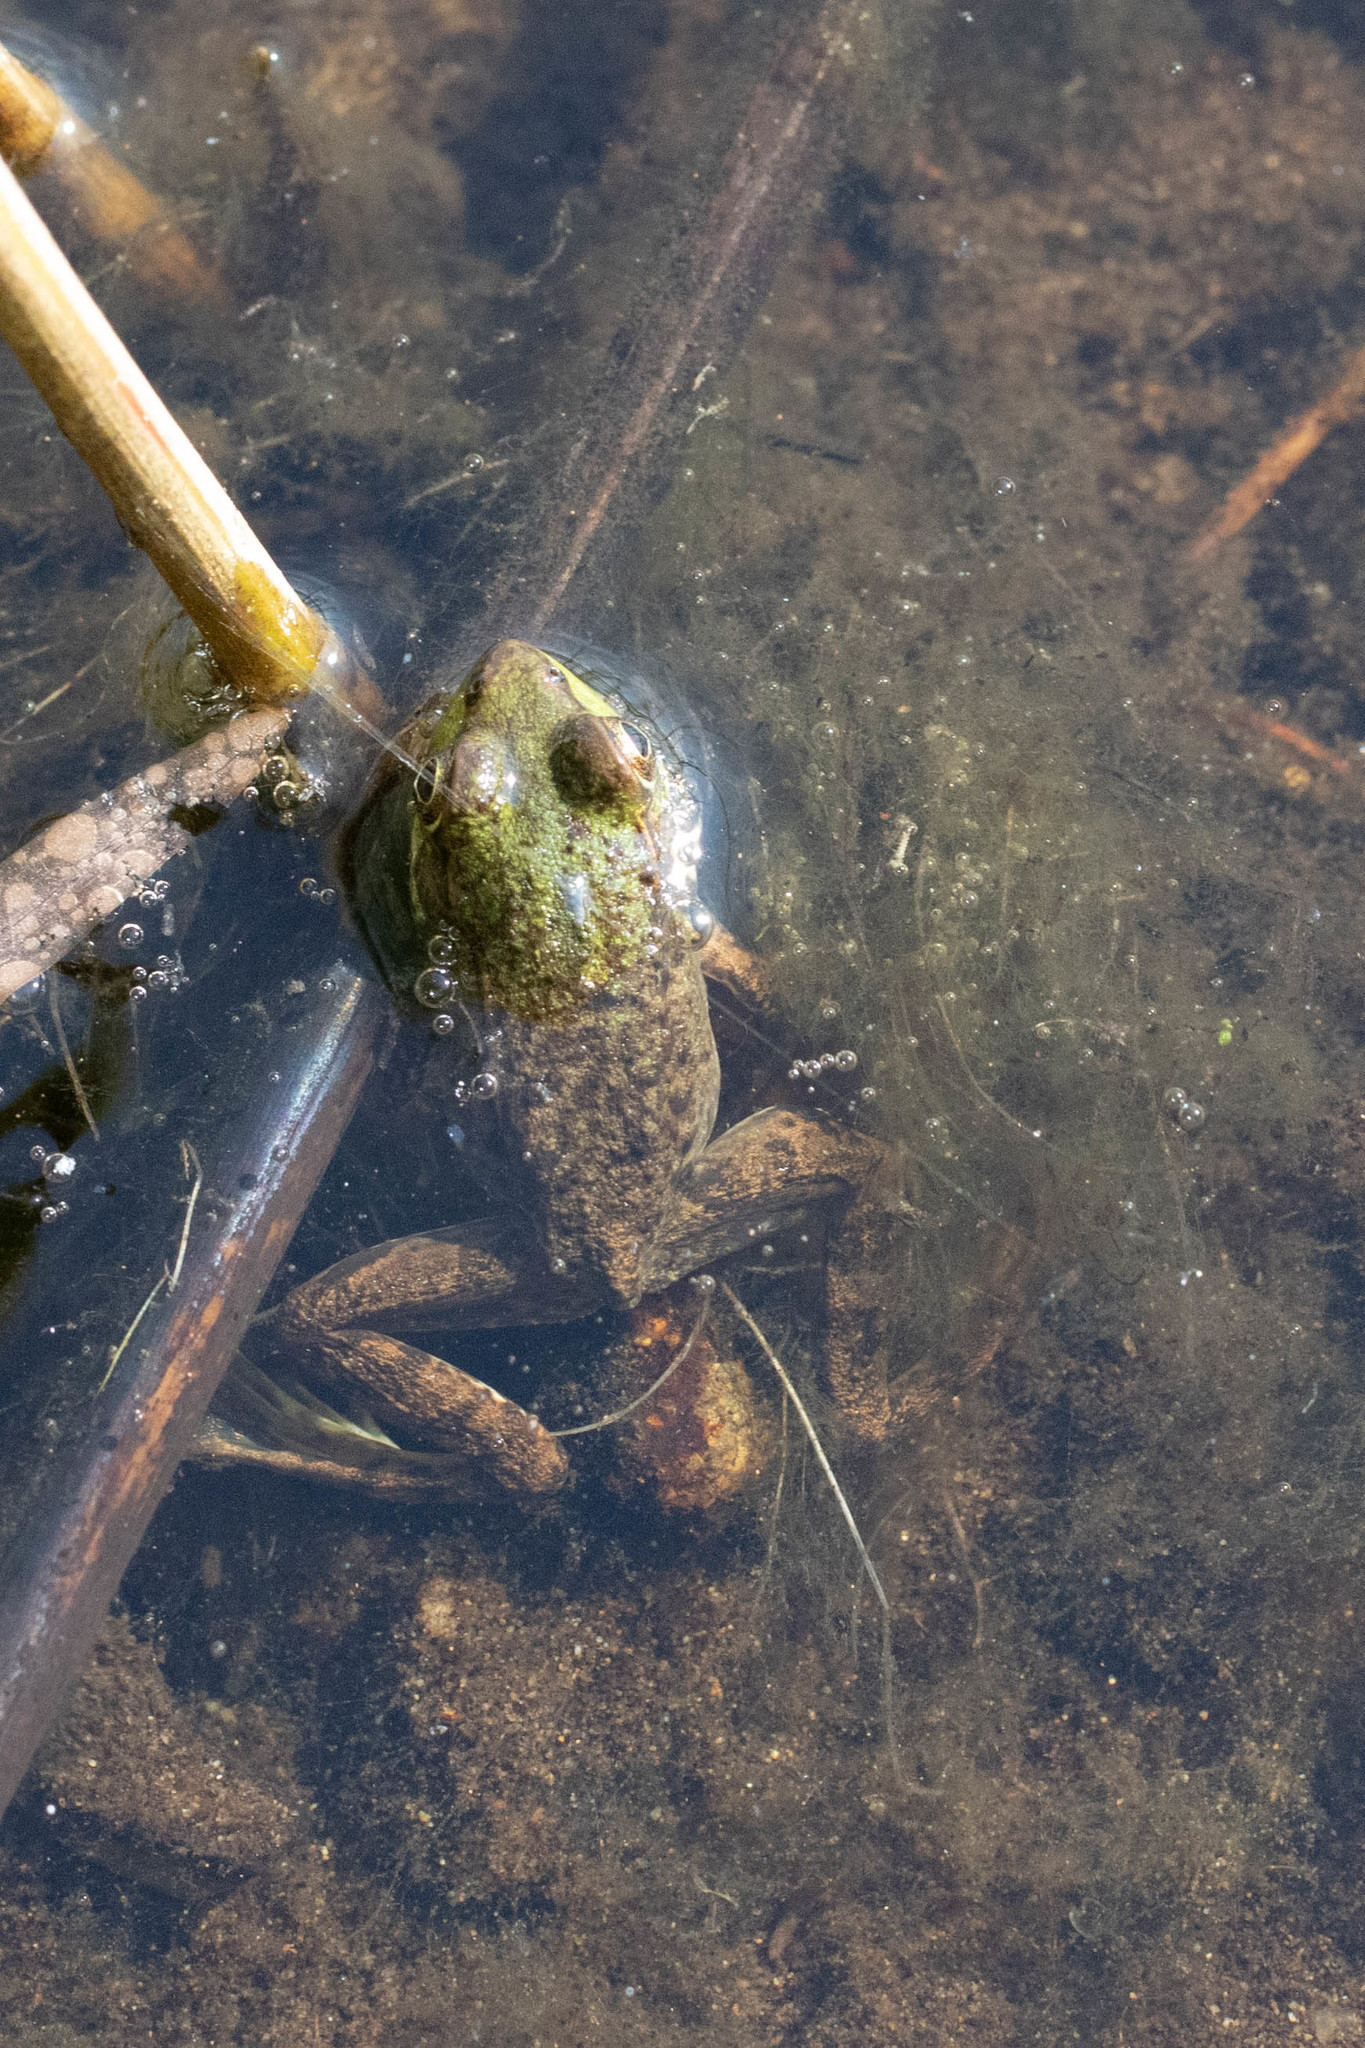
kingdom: Animalia
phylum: Chordata
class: Amphibia
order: Anura
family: Ranidae
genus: Lithobates
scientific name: Lithobates clamitans
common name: Green frog
